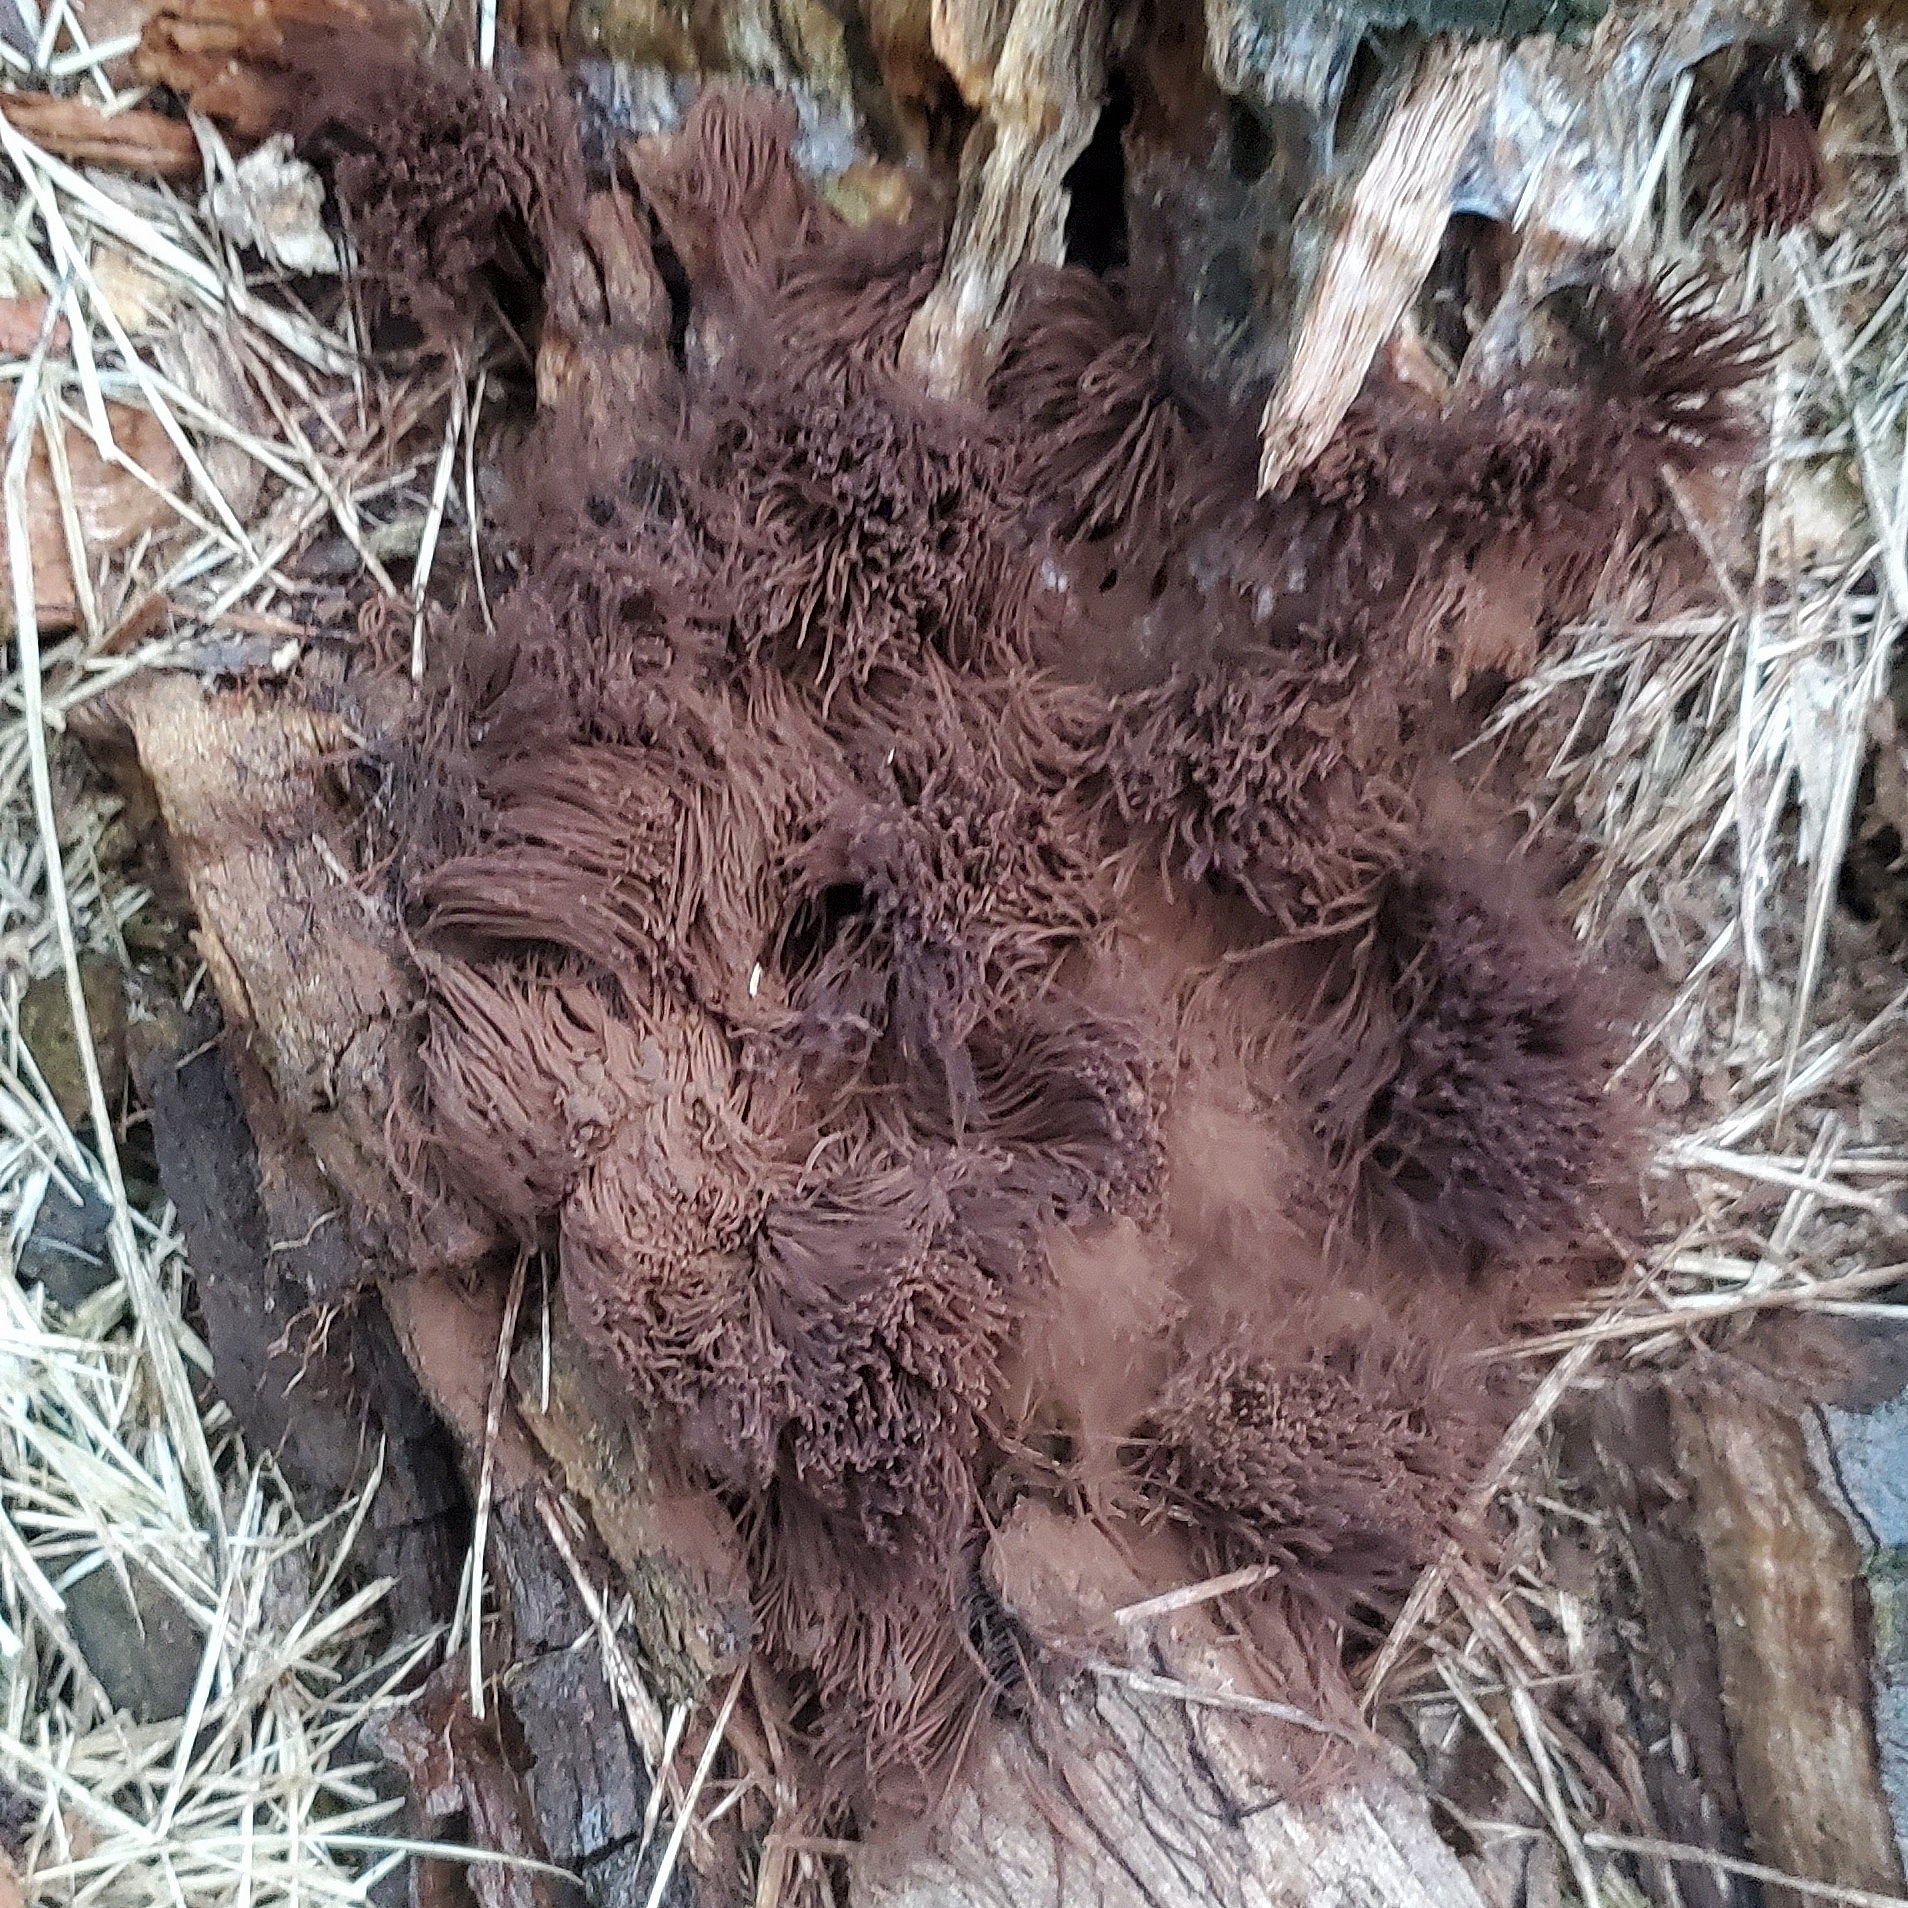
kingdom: Protozoa
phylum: Mycetozoa
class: Myxomycetes
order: Stemonitidales
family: Stemonitidaceae
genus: Stemonitis
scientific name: Stemonitis splendens
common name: Chocolate tube slime
